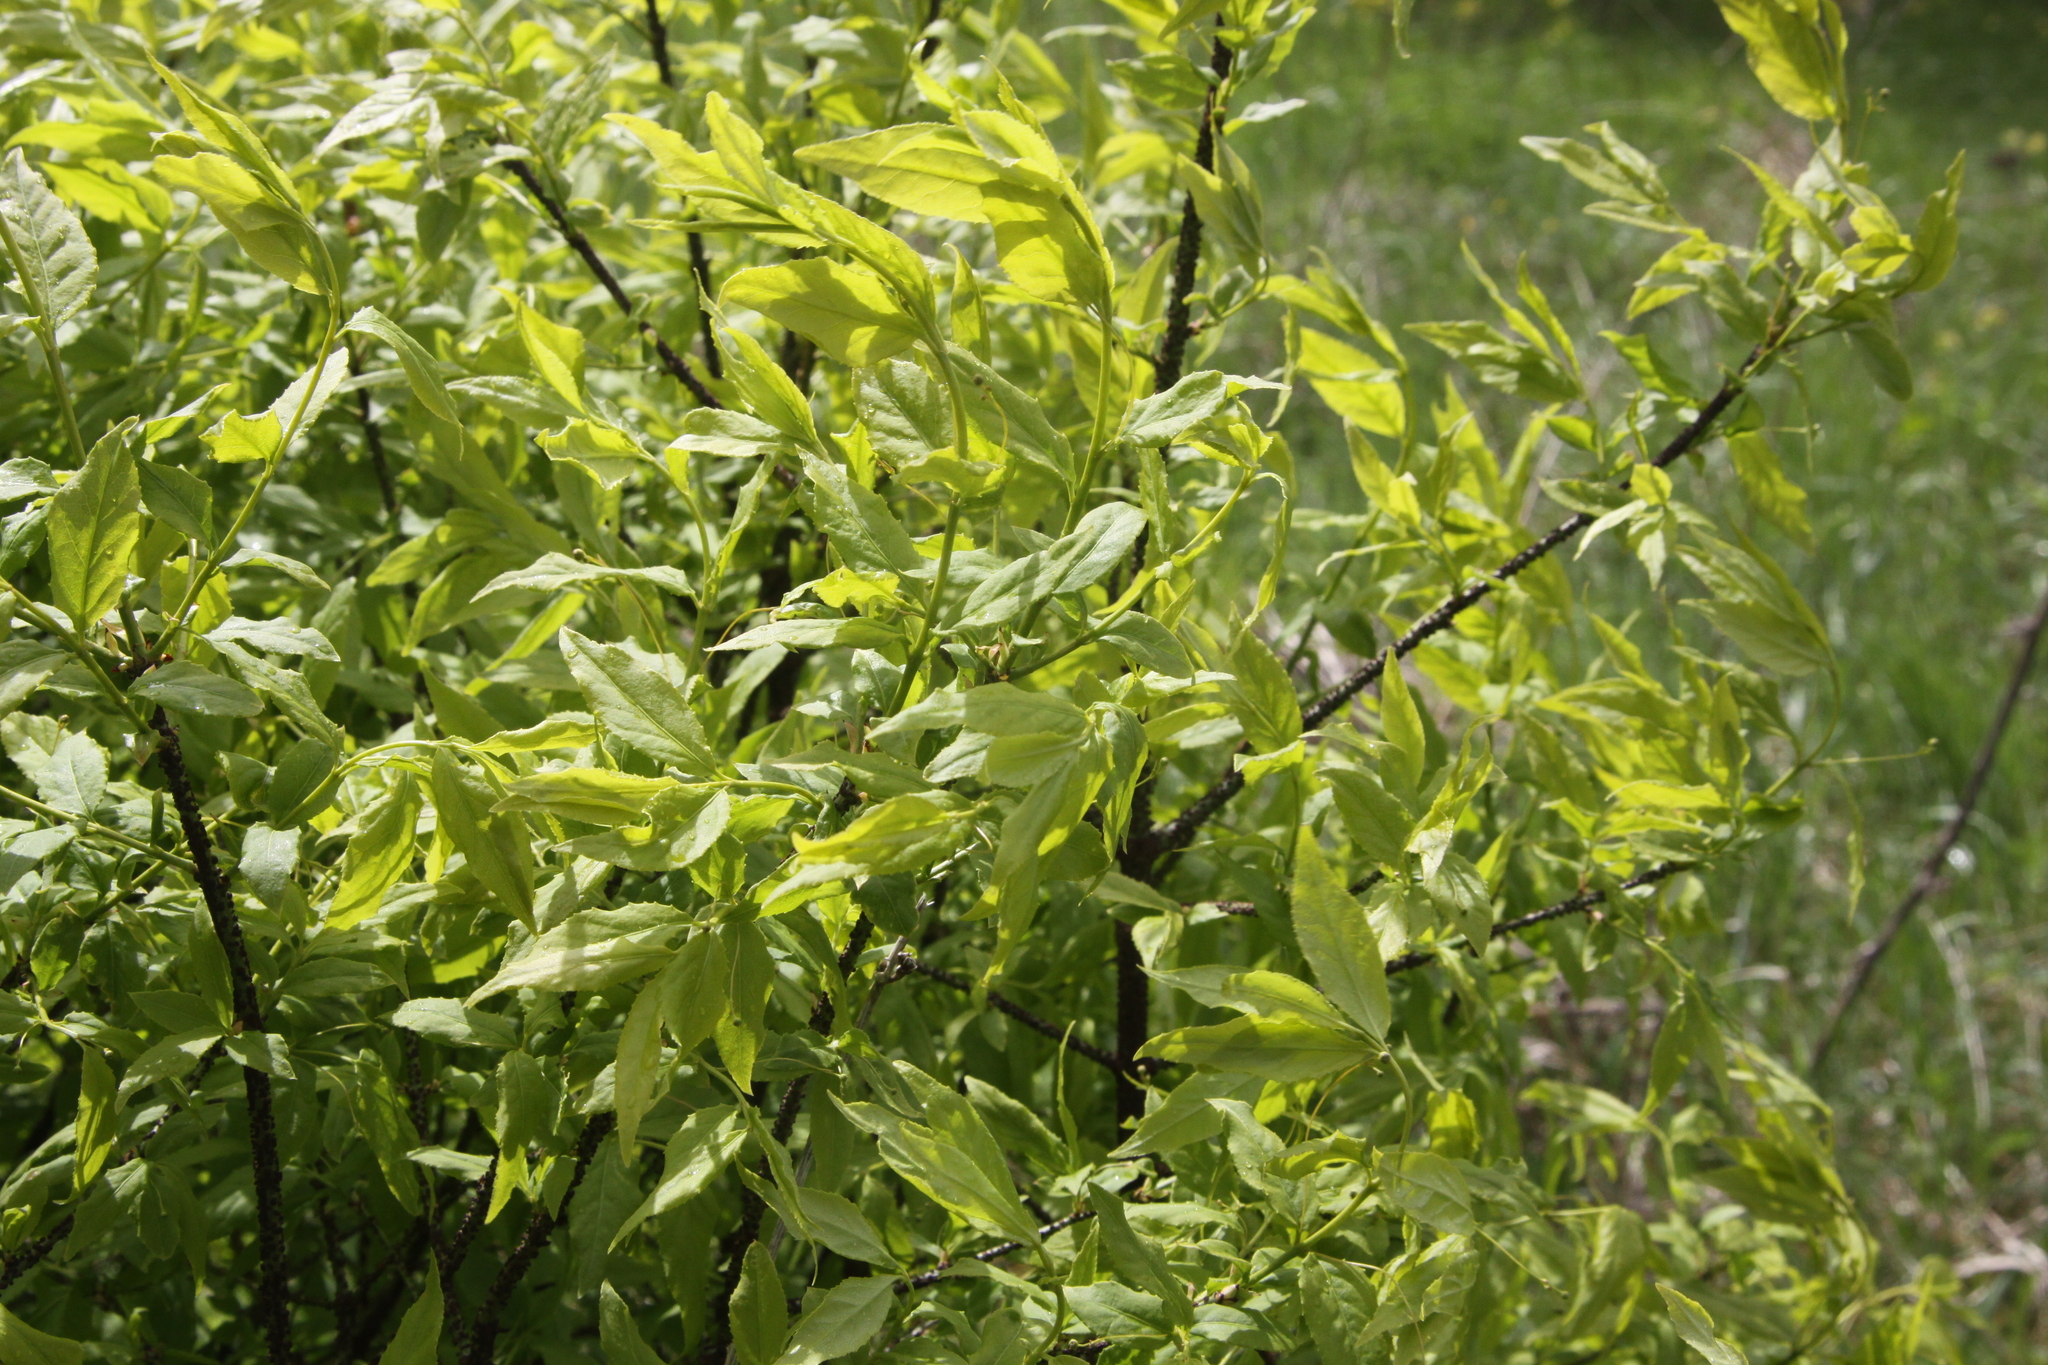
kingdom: Plantae
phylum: Tracheophyta
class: Magnoliopsida
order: Celastrales
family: Celastraceae
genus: Euonymus
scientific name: Euonymus verrucosus
